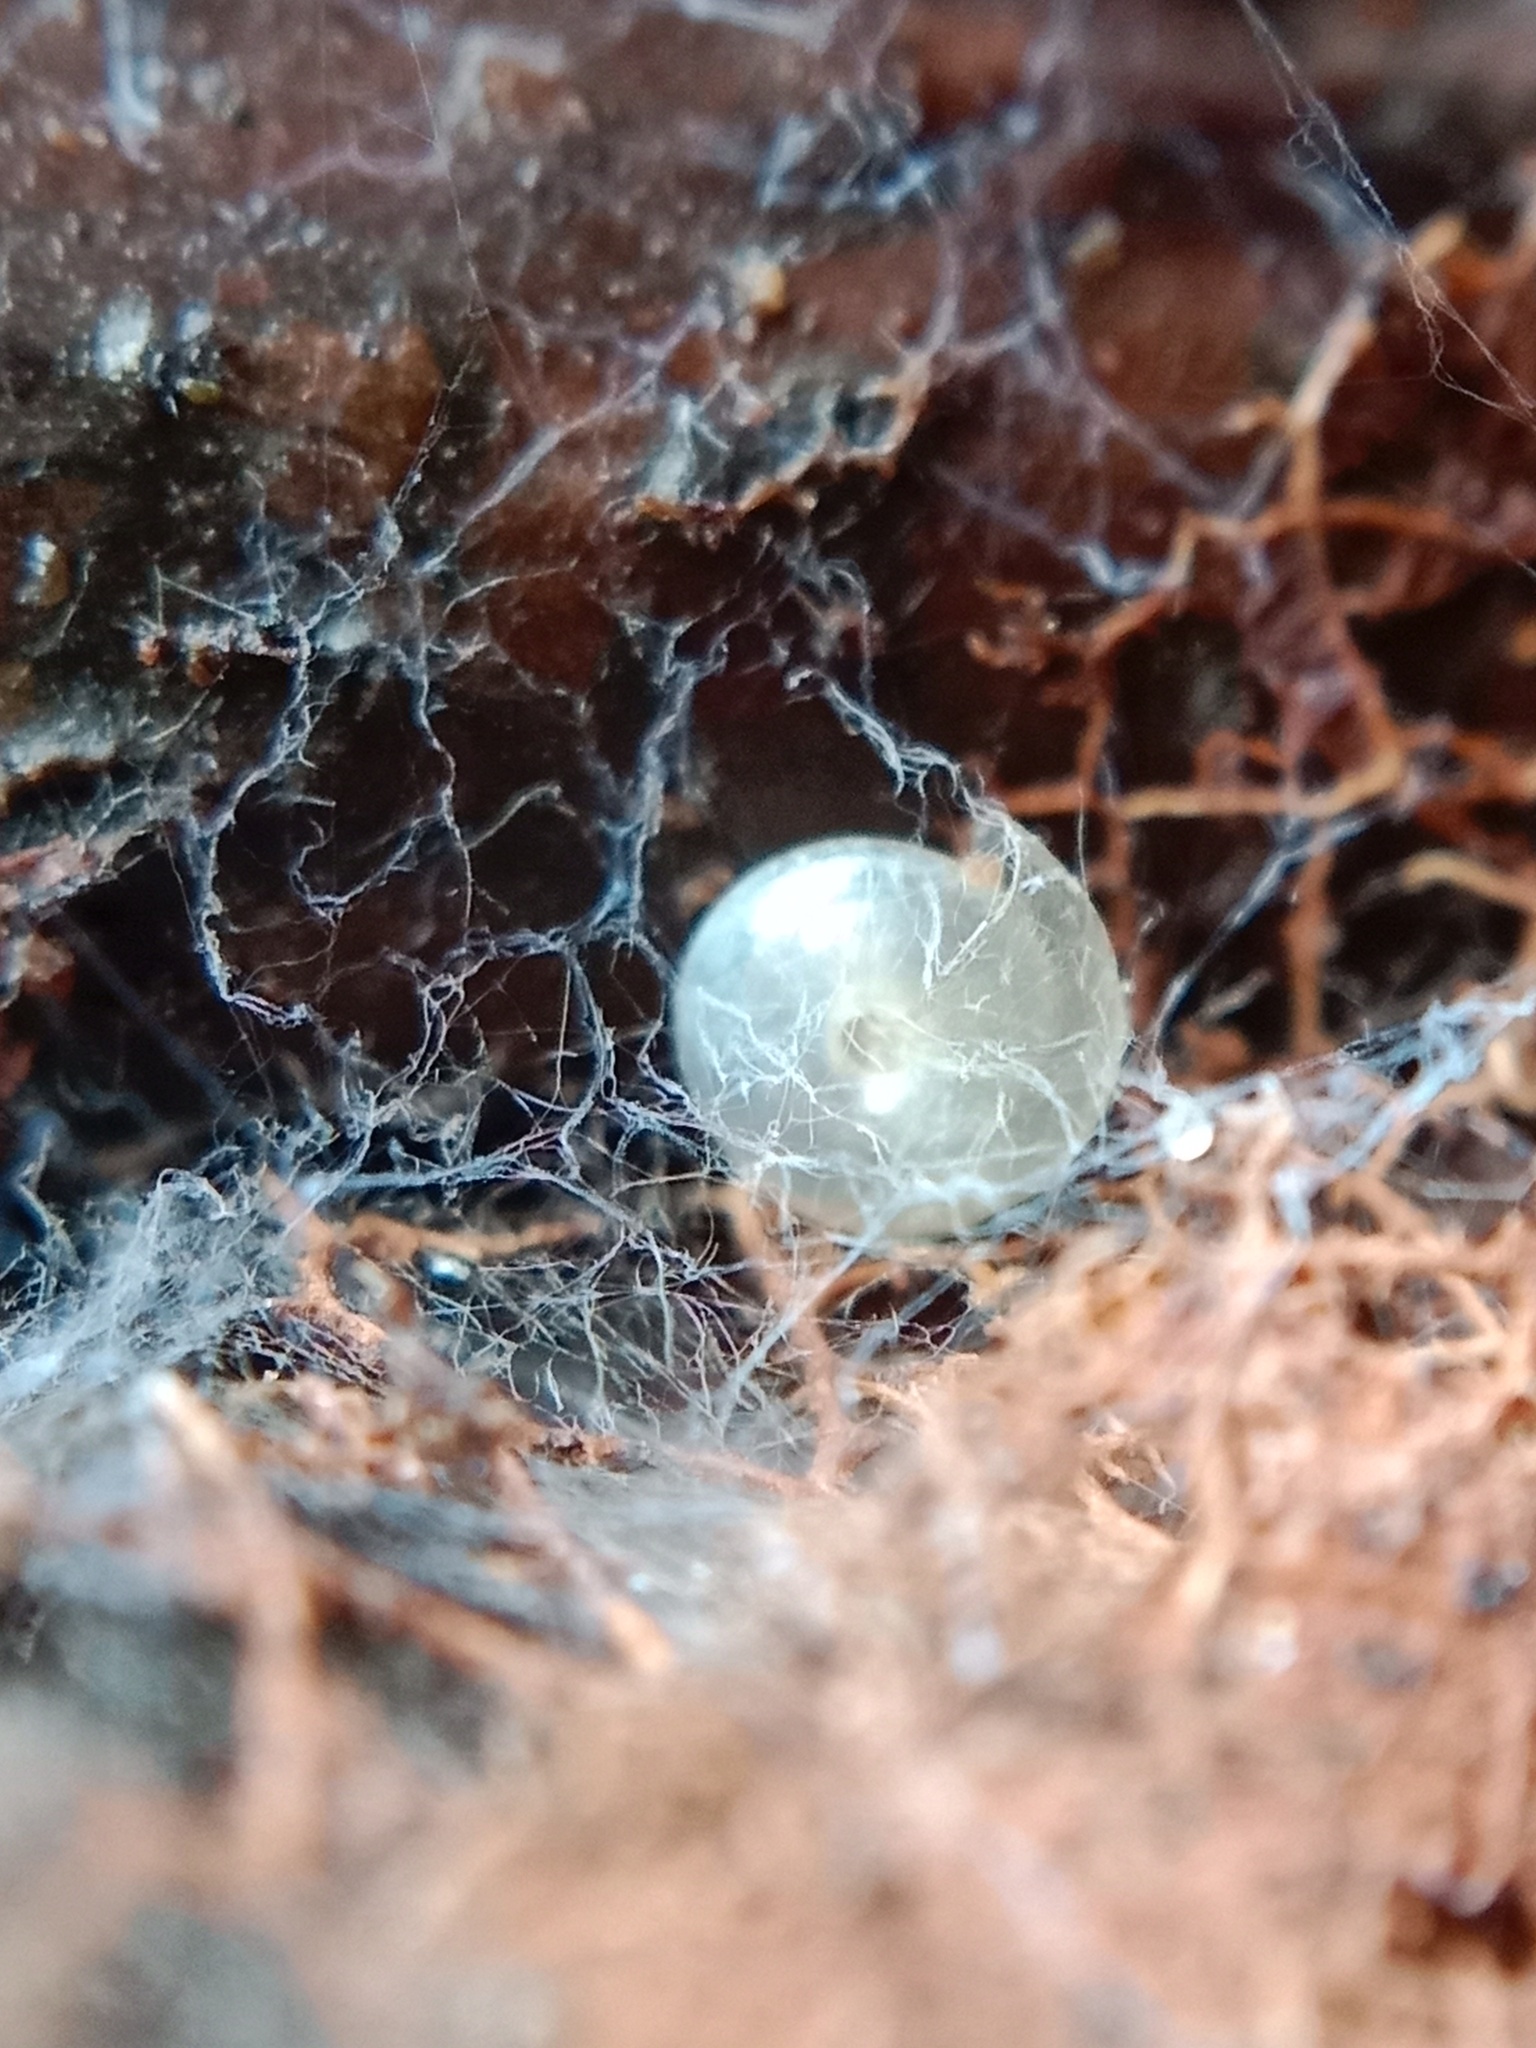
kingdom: Animalia
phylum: Mollusca
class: Gastropoda
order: Stylommatophora
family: Pristilomatidae
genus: Vitrea
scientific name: Vitrea contracta
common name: Milky crystal snail
